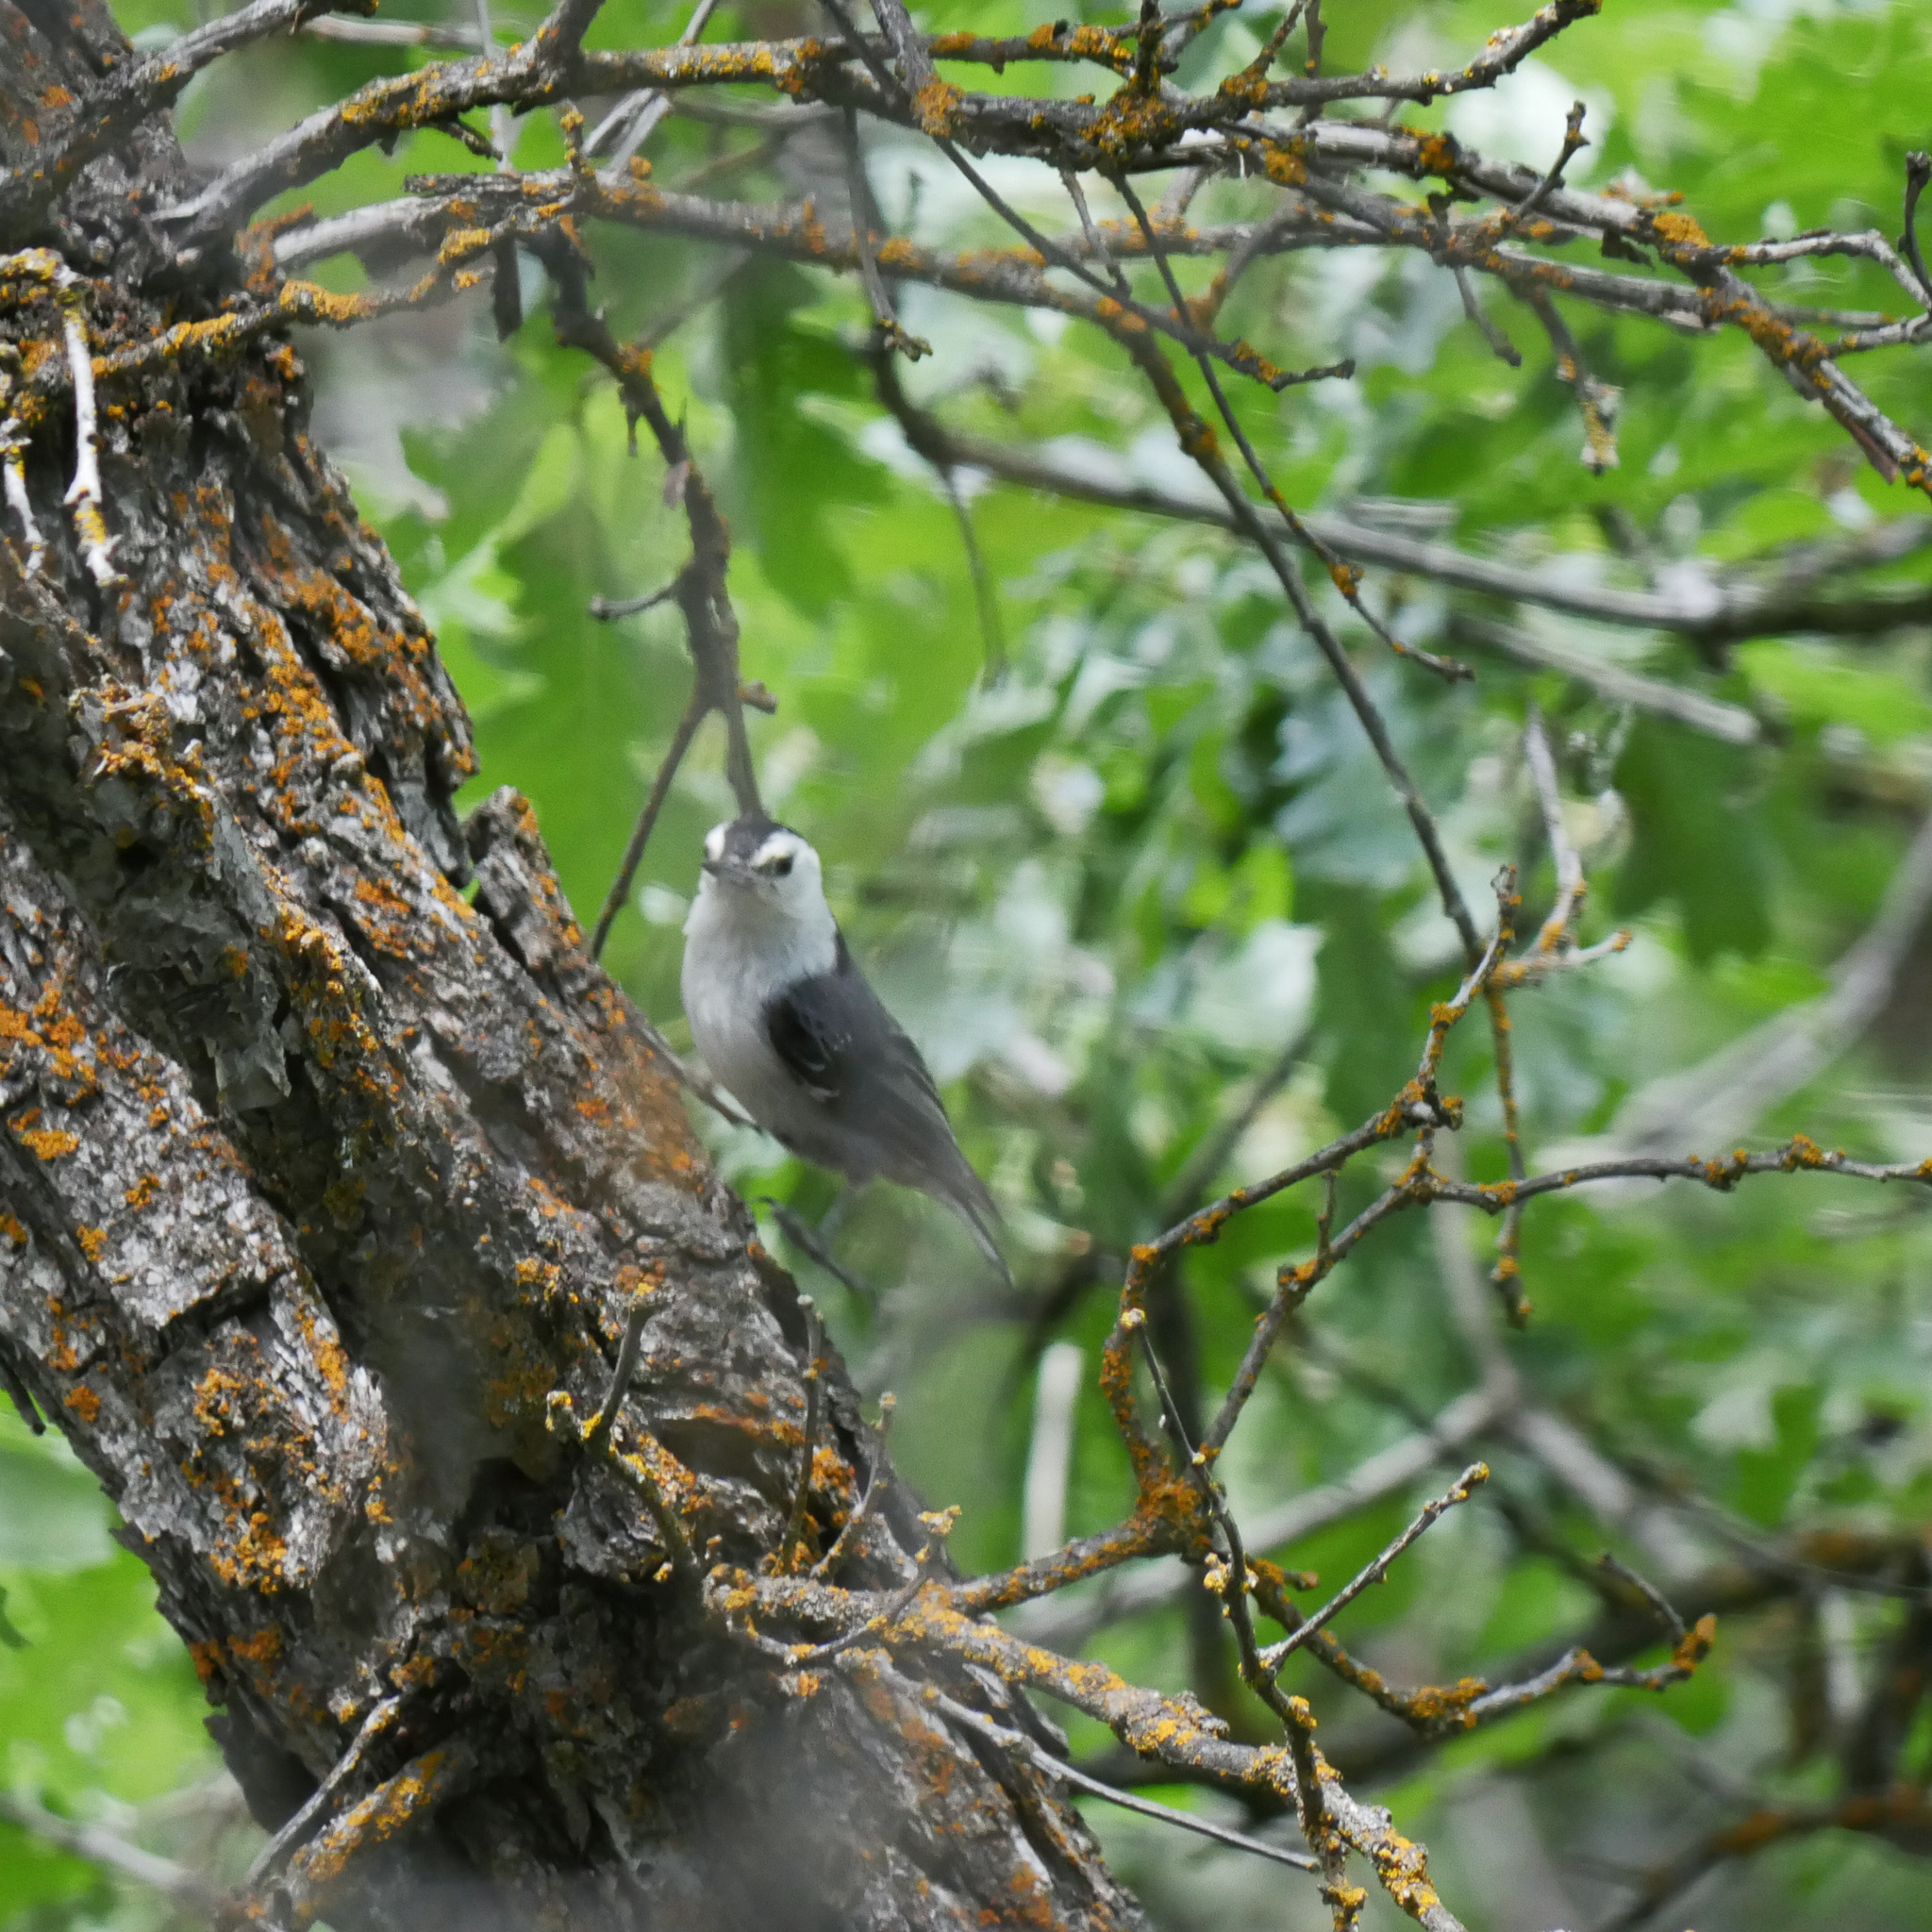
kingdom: Animalia
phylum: Chordata
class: Aves
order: Passeriformes
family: Sittidae
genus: Sitta
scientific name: Sitta carolinensis
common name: White-breasted nuthatch
